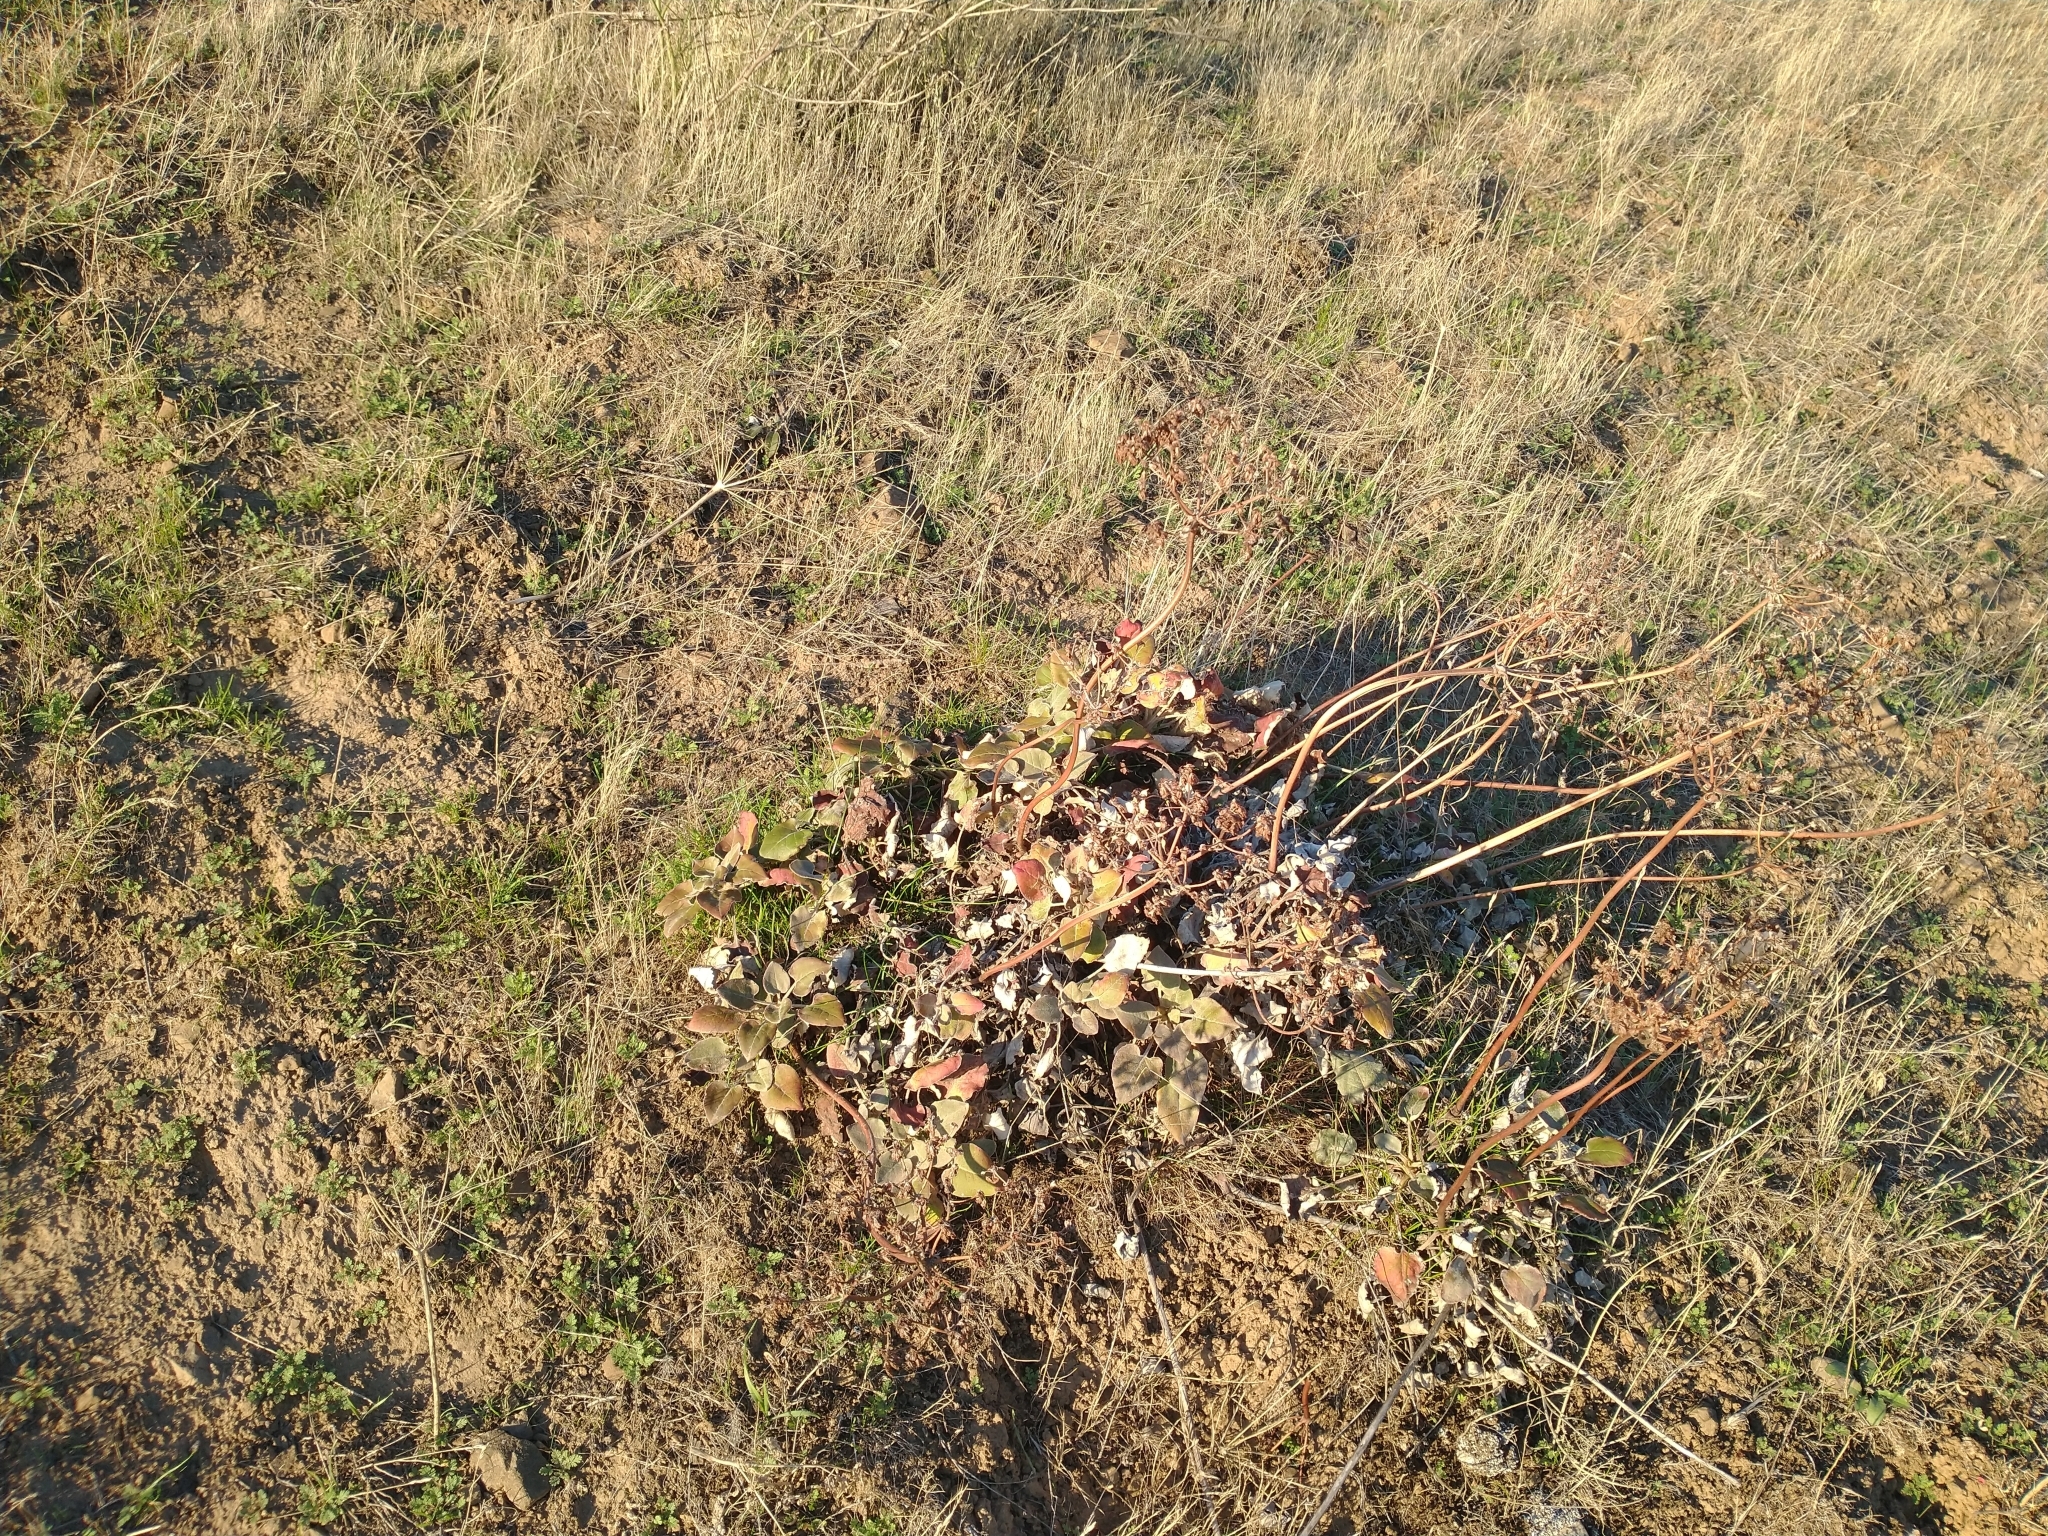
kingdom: Plantae
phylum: Tracheophyta
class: Magnoliopsida
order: Caryophyllales
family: Polygonaceae
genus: Eriogonum
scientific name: Eriogonum compositum
